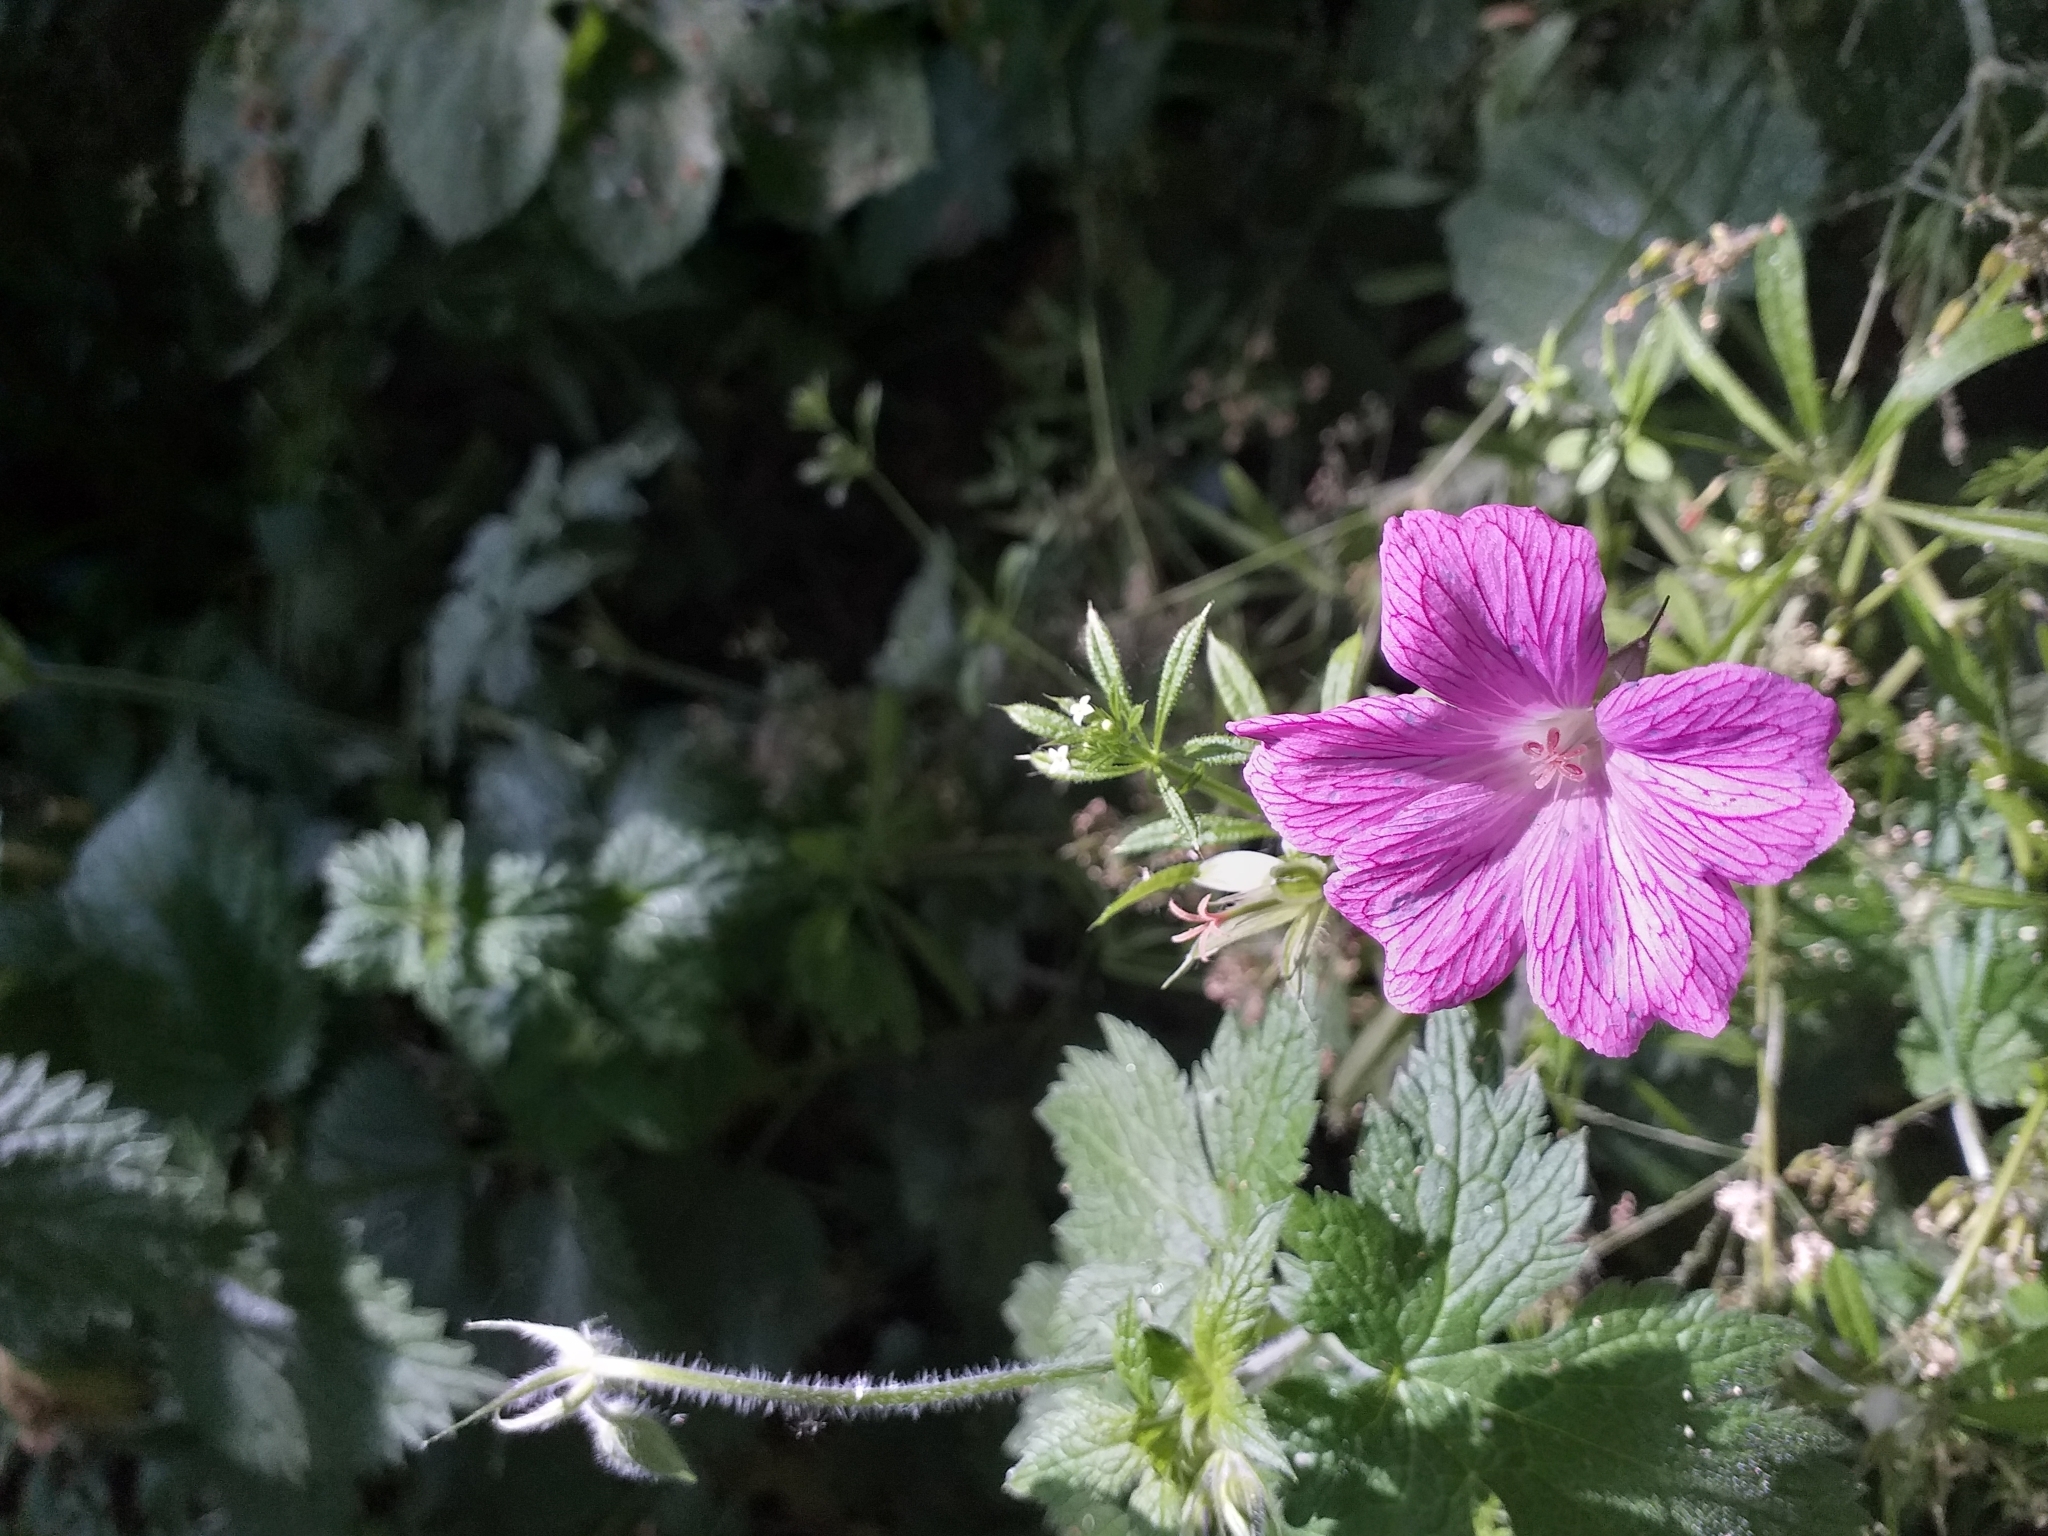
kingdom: Plantae
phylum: Tracheophyta
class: Magnoliopsida
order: Geraniales
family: Geraniaceae
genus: Geranium
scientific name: Geranium oxonianum
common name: Druce's crane's-bill
